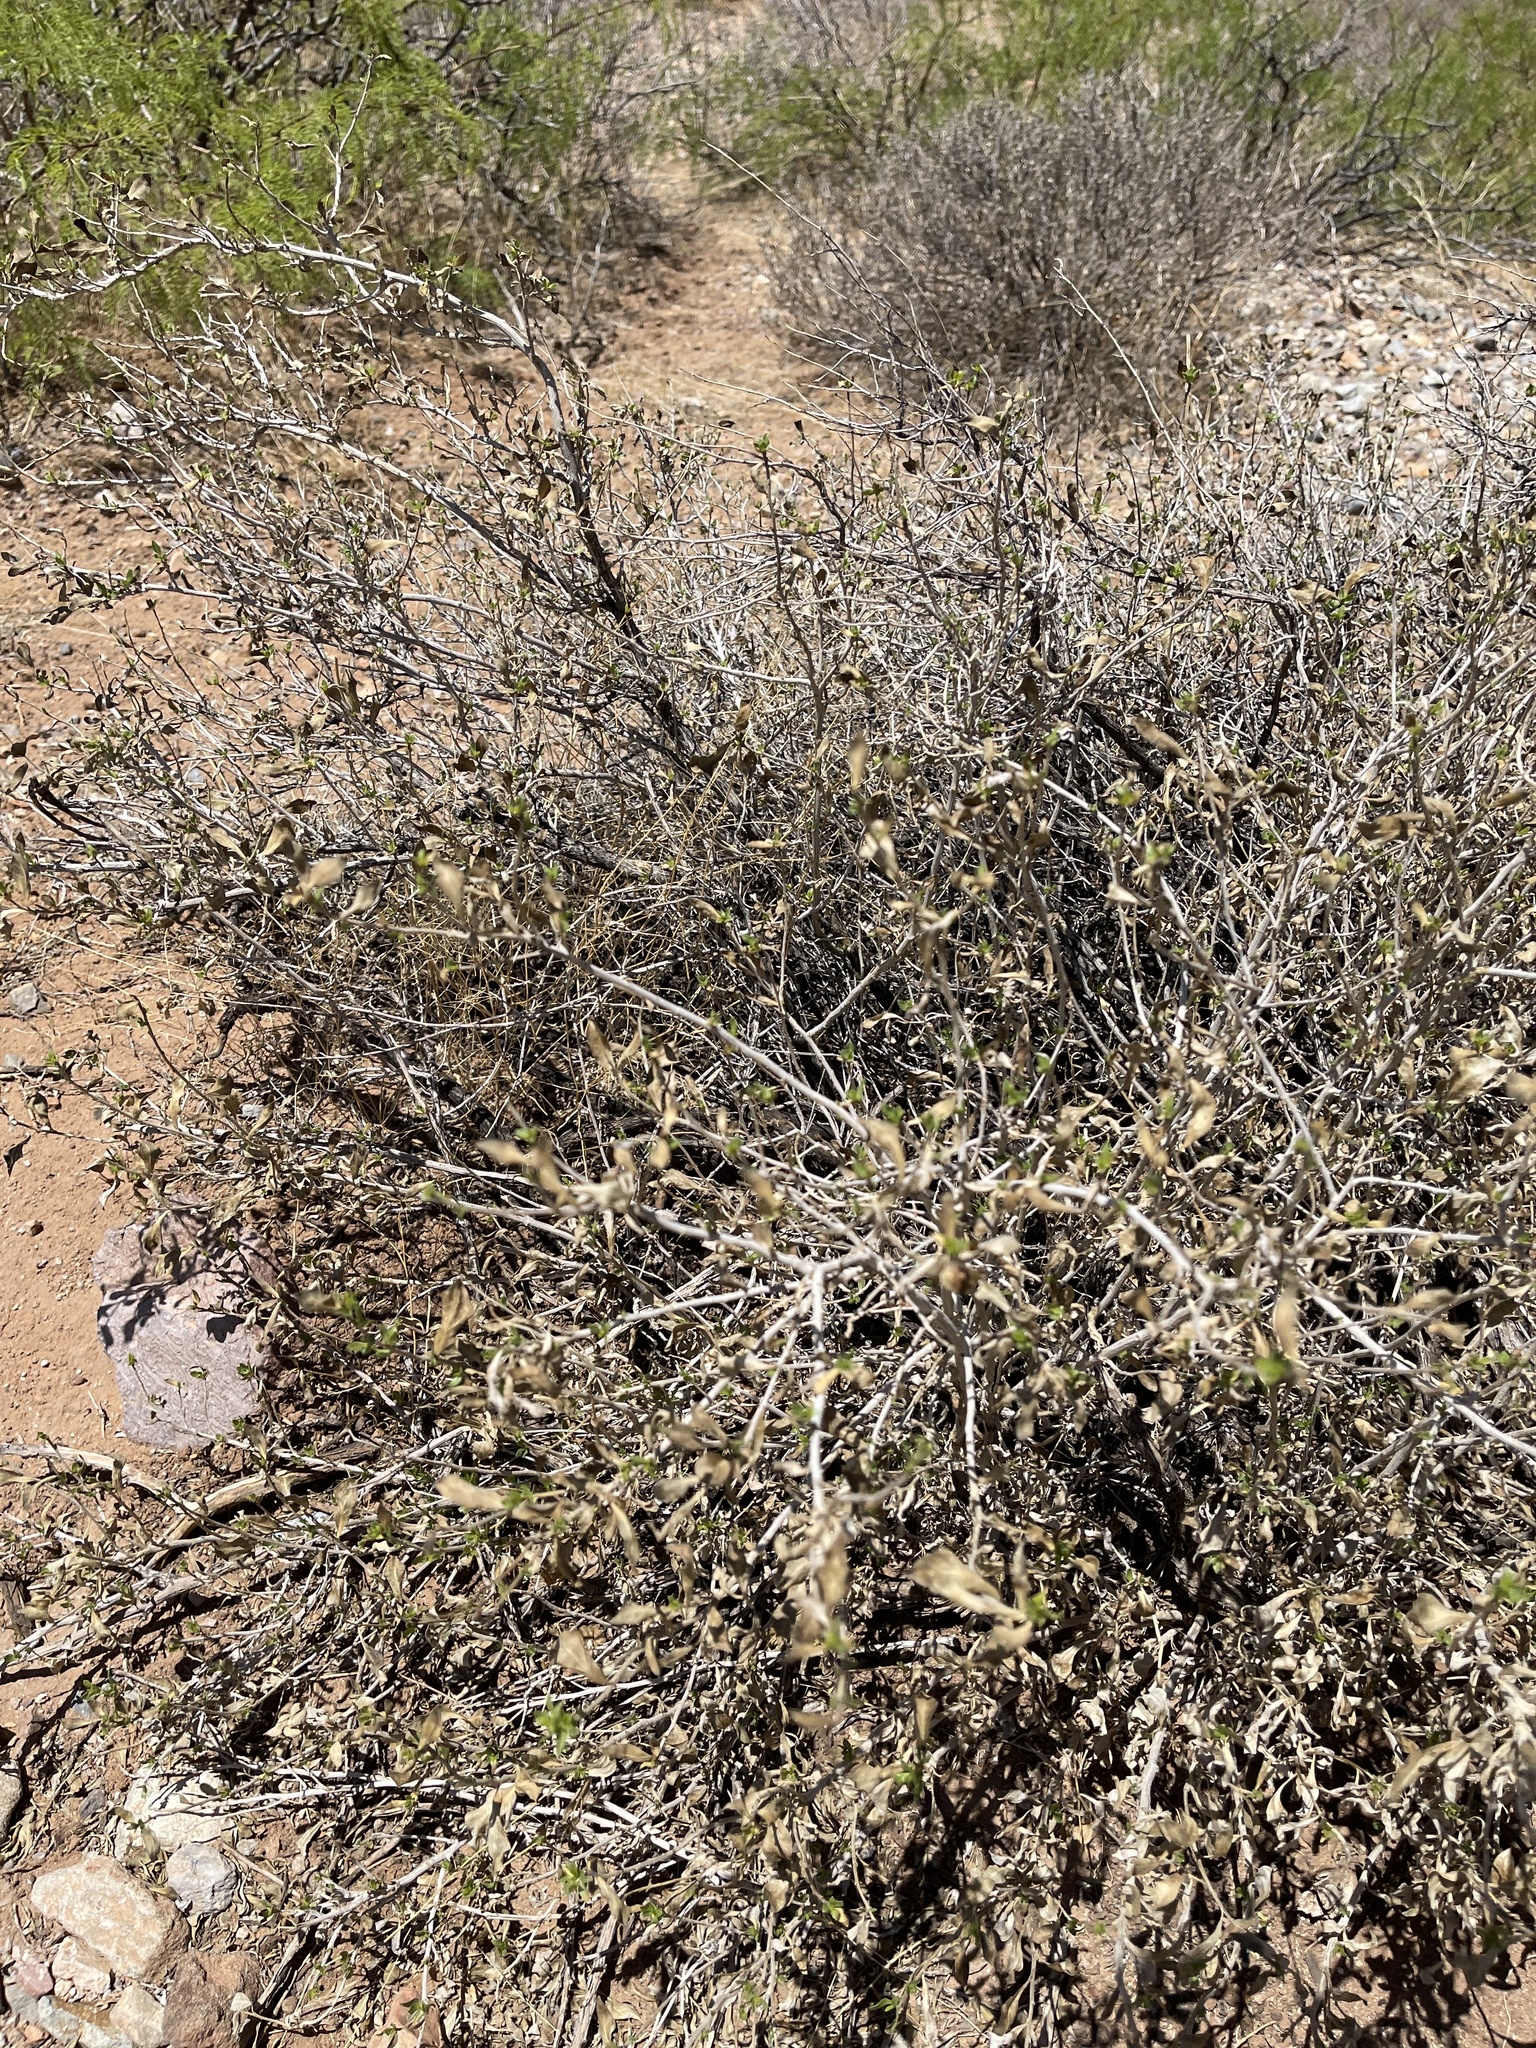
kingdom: Plantae
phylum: Tracheophyta
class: Magnoliopsida
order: Asterales
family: Asteraceae
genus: Flourensia
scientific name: Flourensia cernua
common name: Varnishbush
